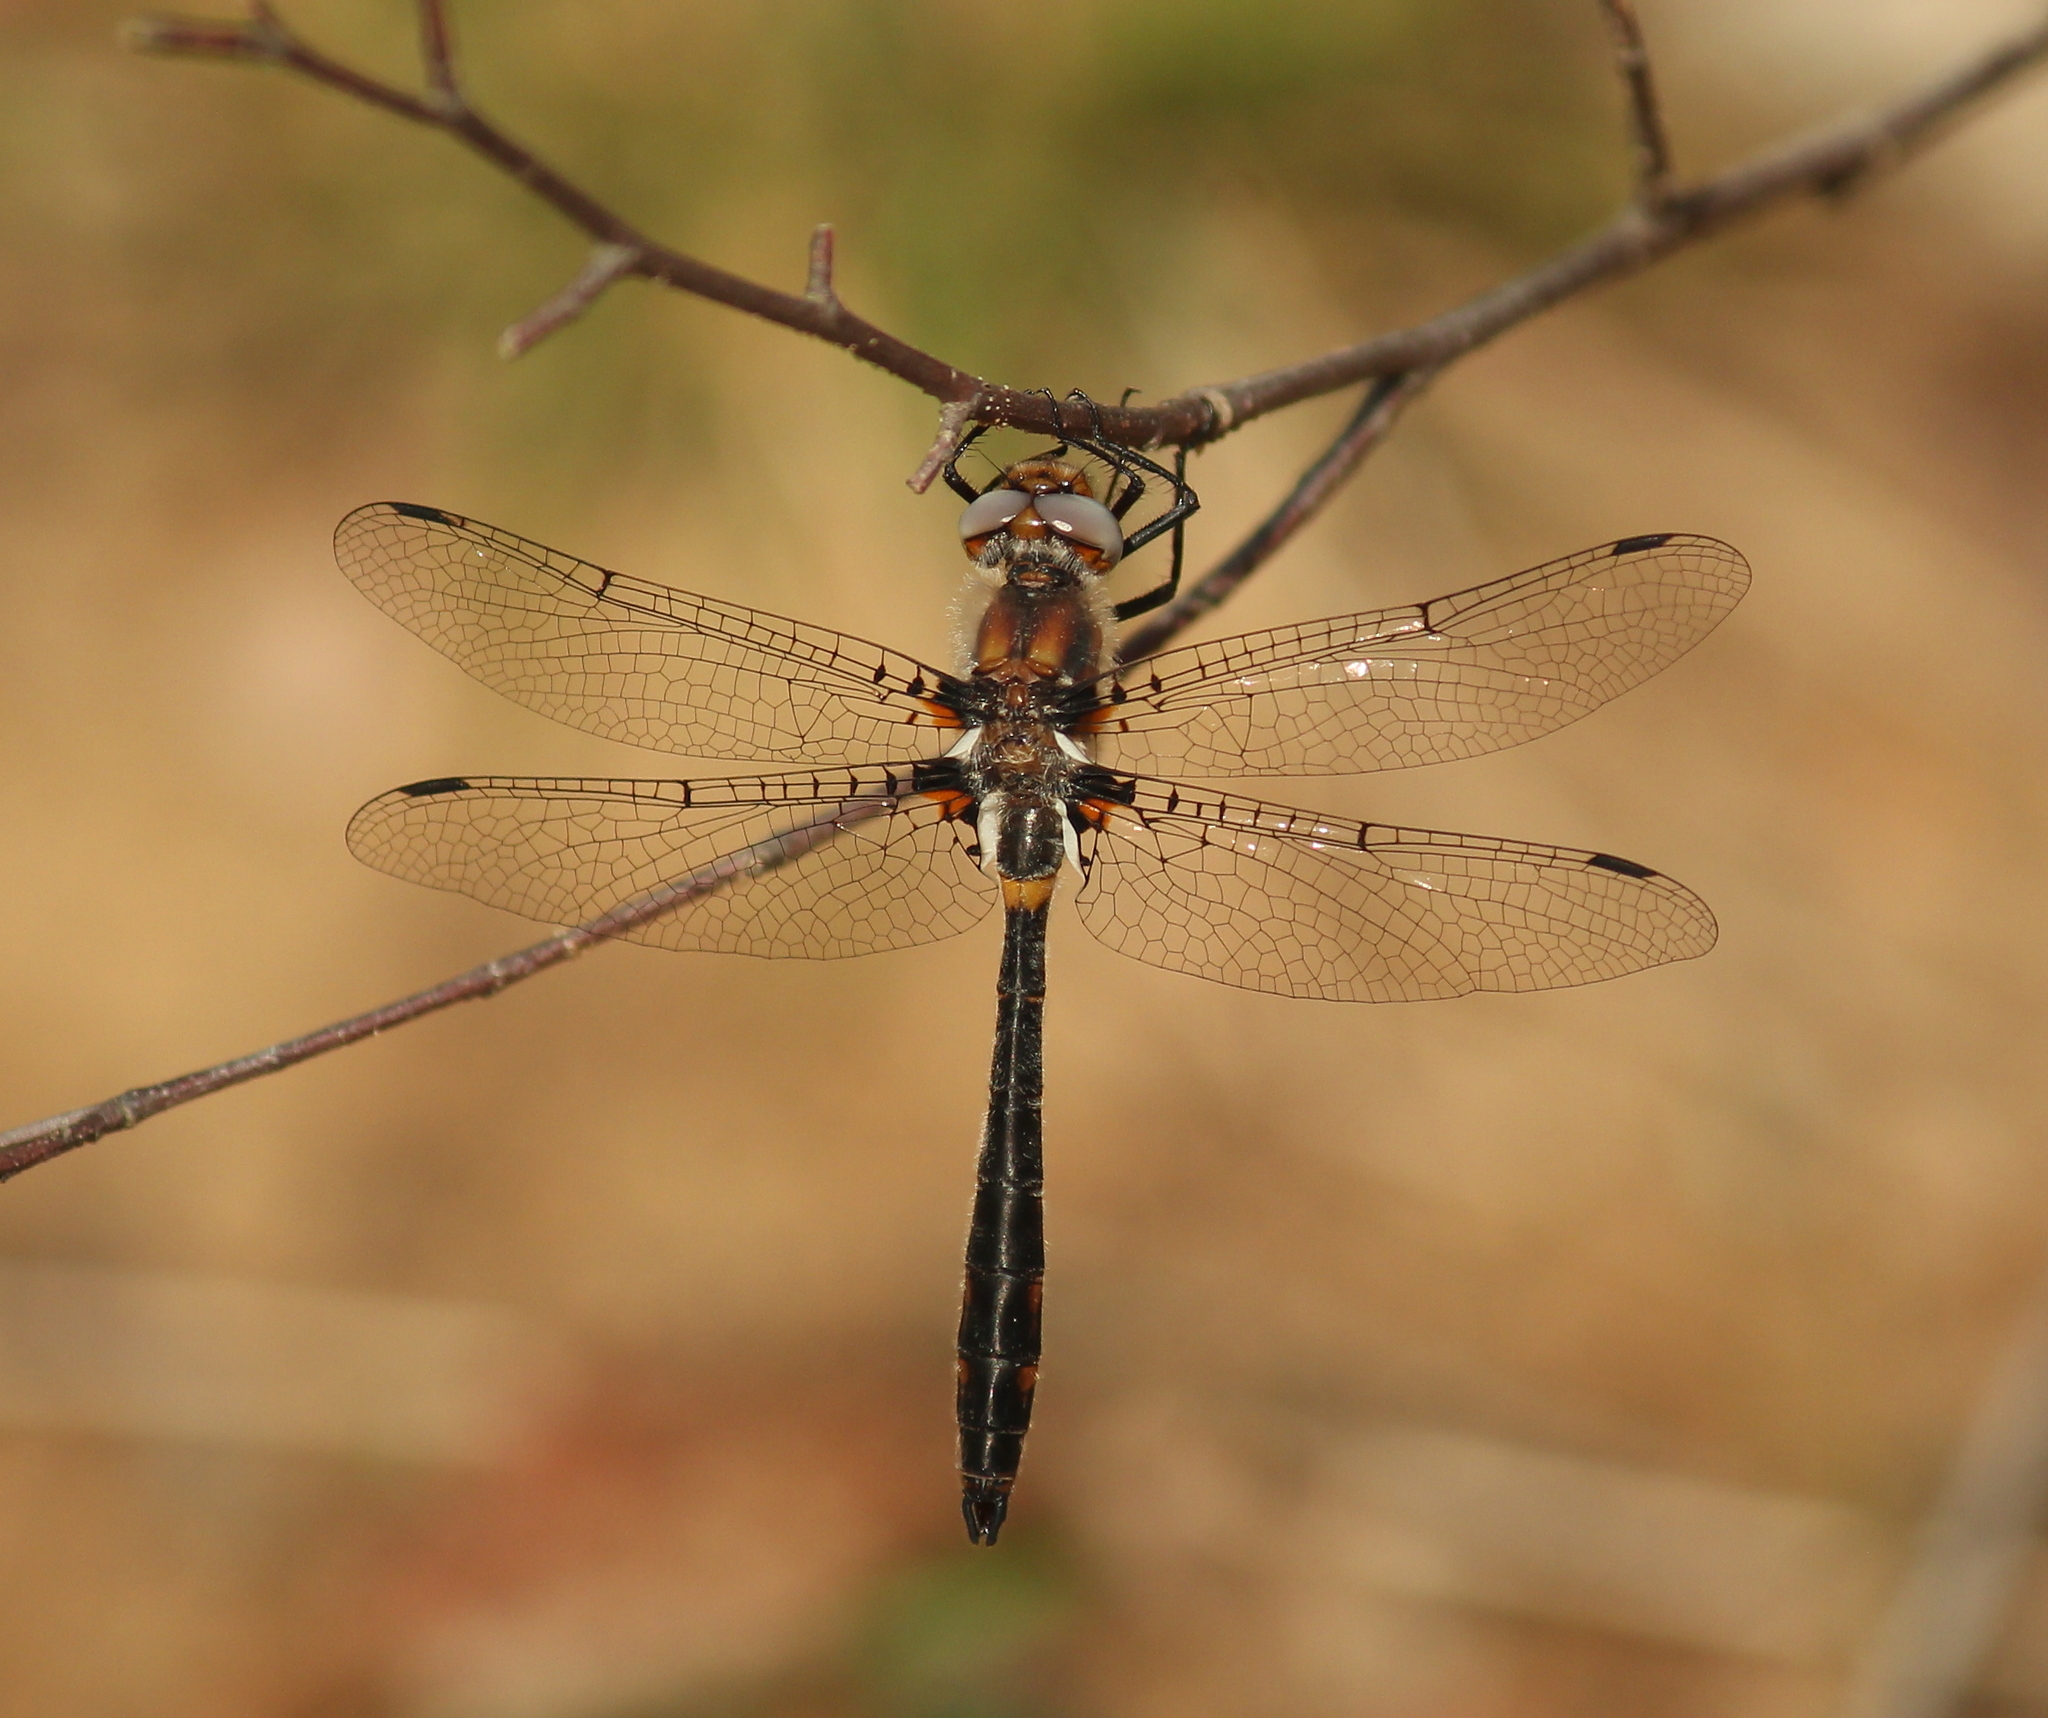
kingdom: Animalia
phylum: Arthropoda
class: Insecta
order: Odonata
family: Corduliidae
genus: Helocordulia
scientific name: Helocordulia uhleri
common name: Uhler's sundragon
